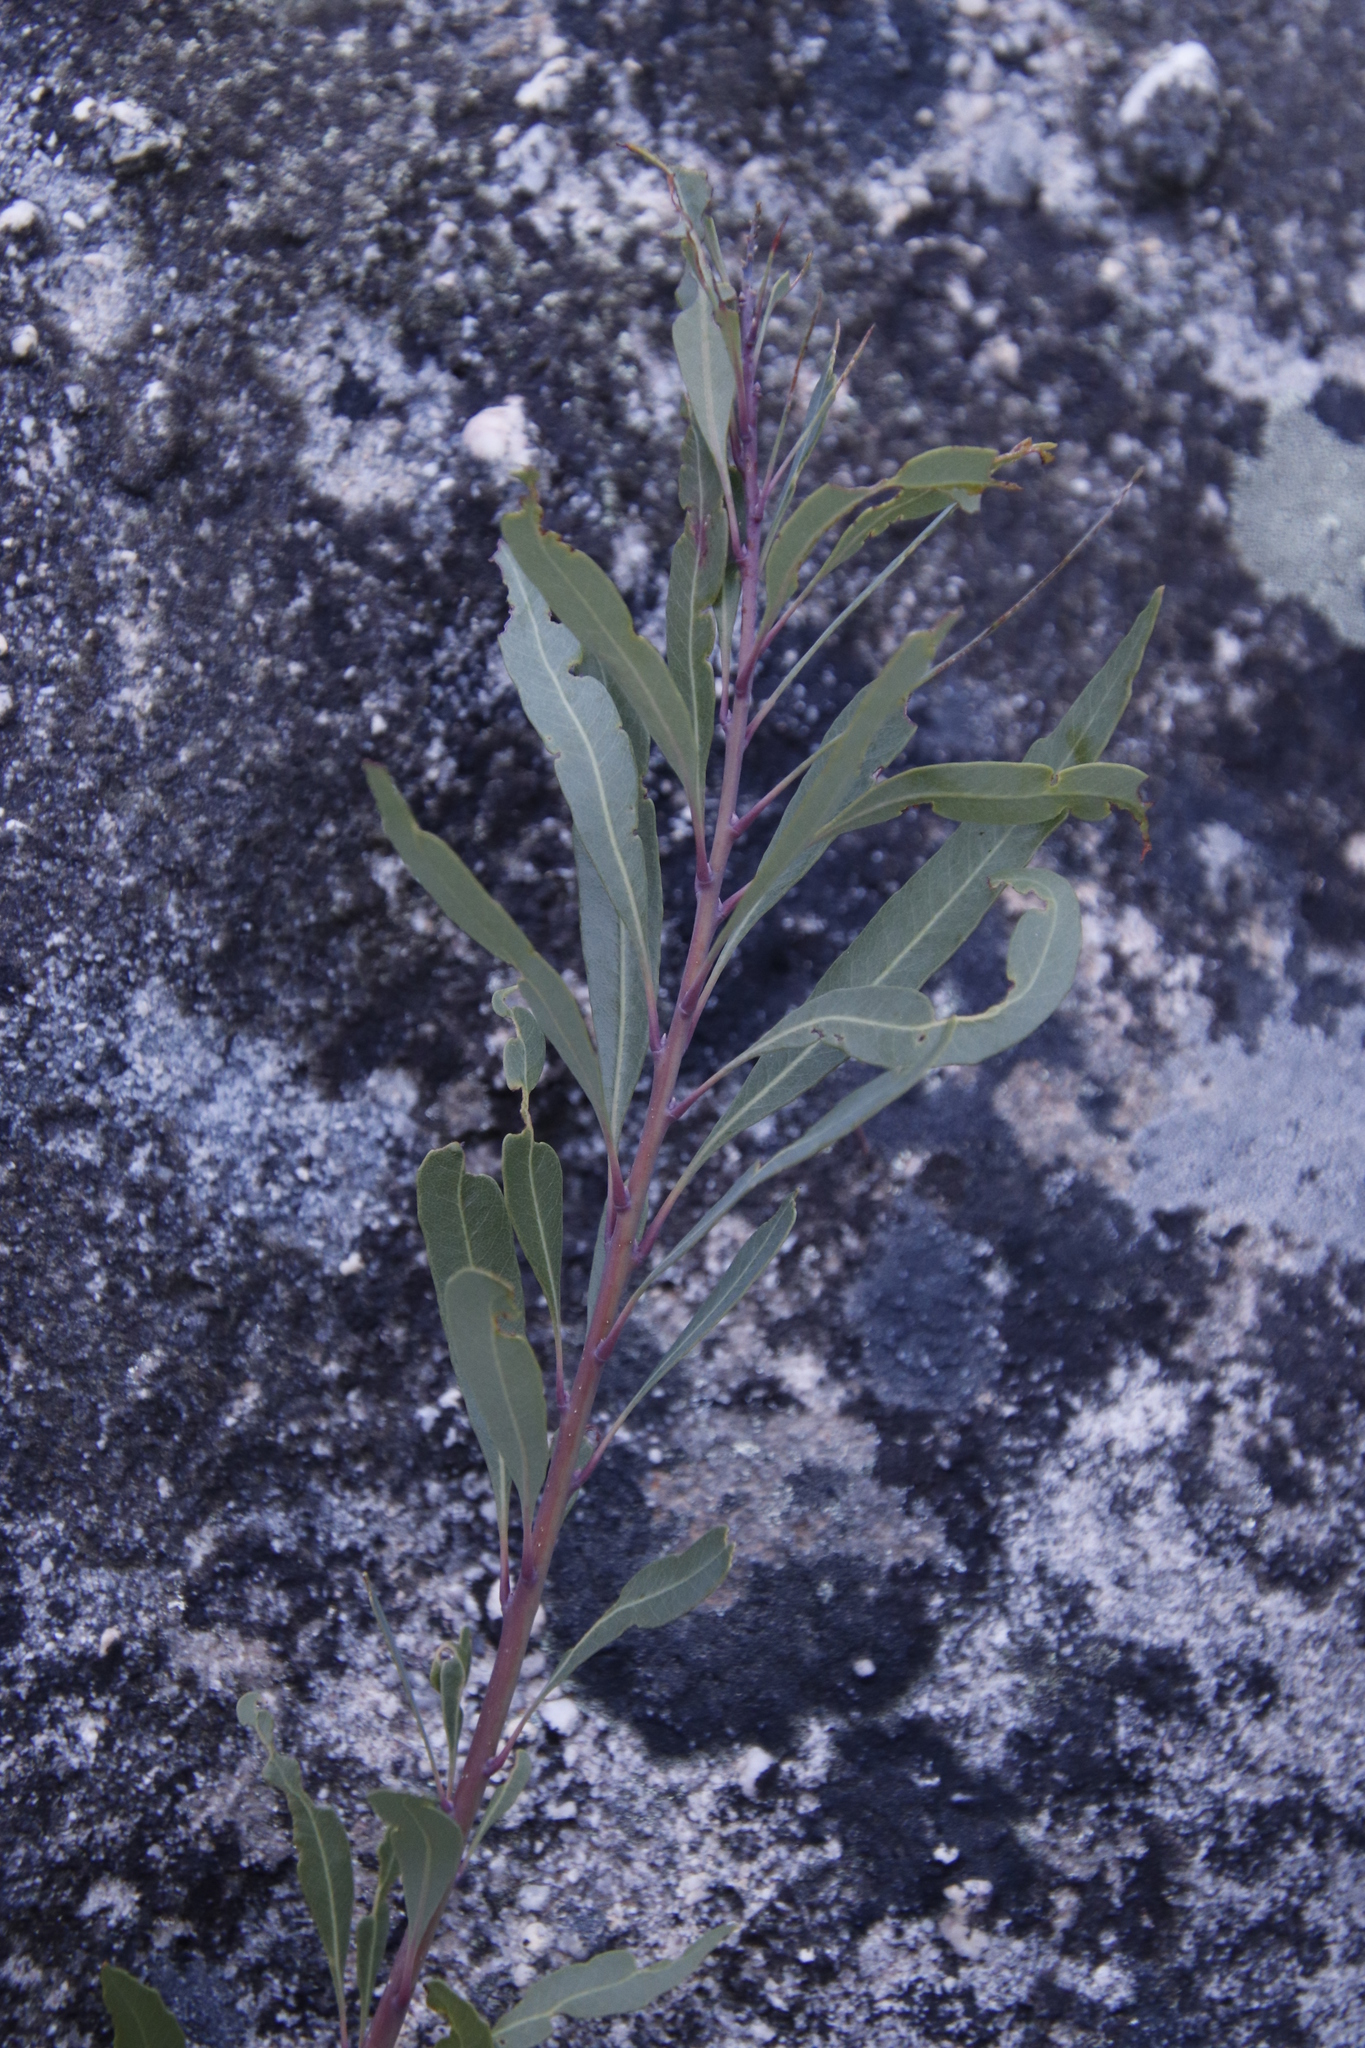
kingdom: Plantae
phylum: Tracheophyta
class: Magnoliopsida
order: Fagales
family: Myricaceae
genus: Morella
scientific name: Morella integra
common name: Western lance-leaved wax-berry
